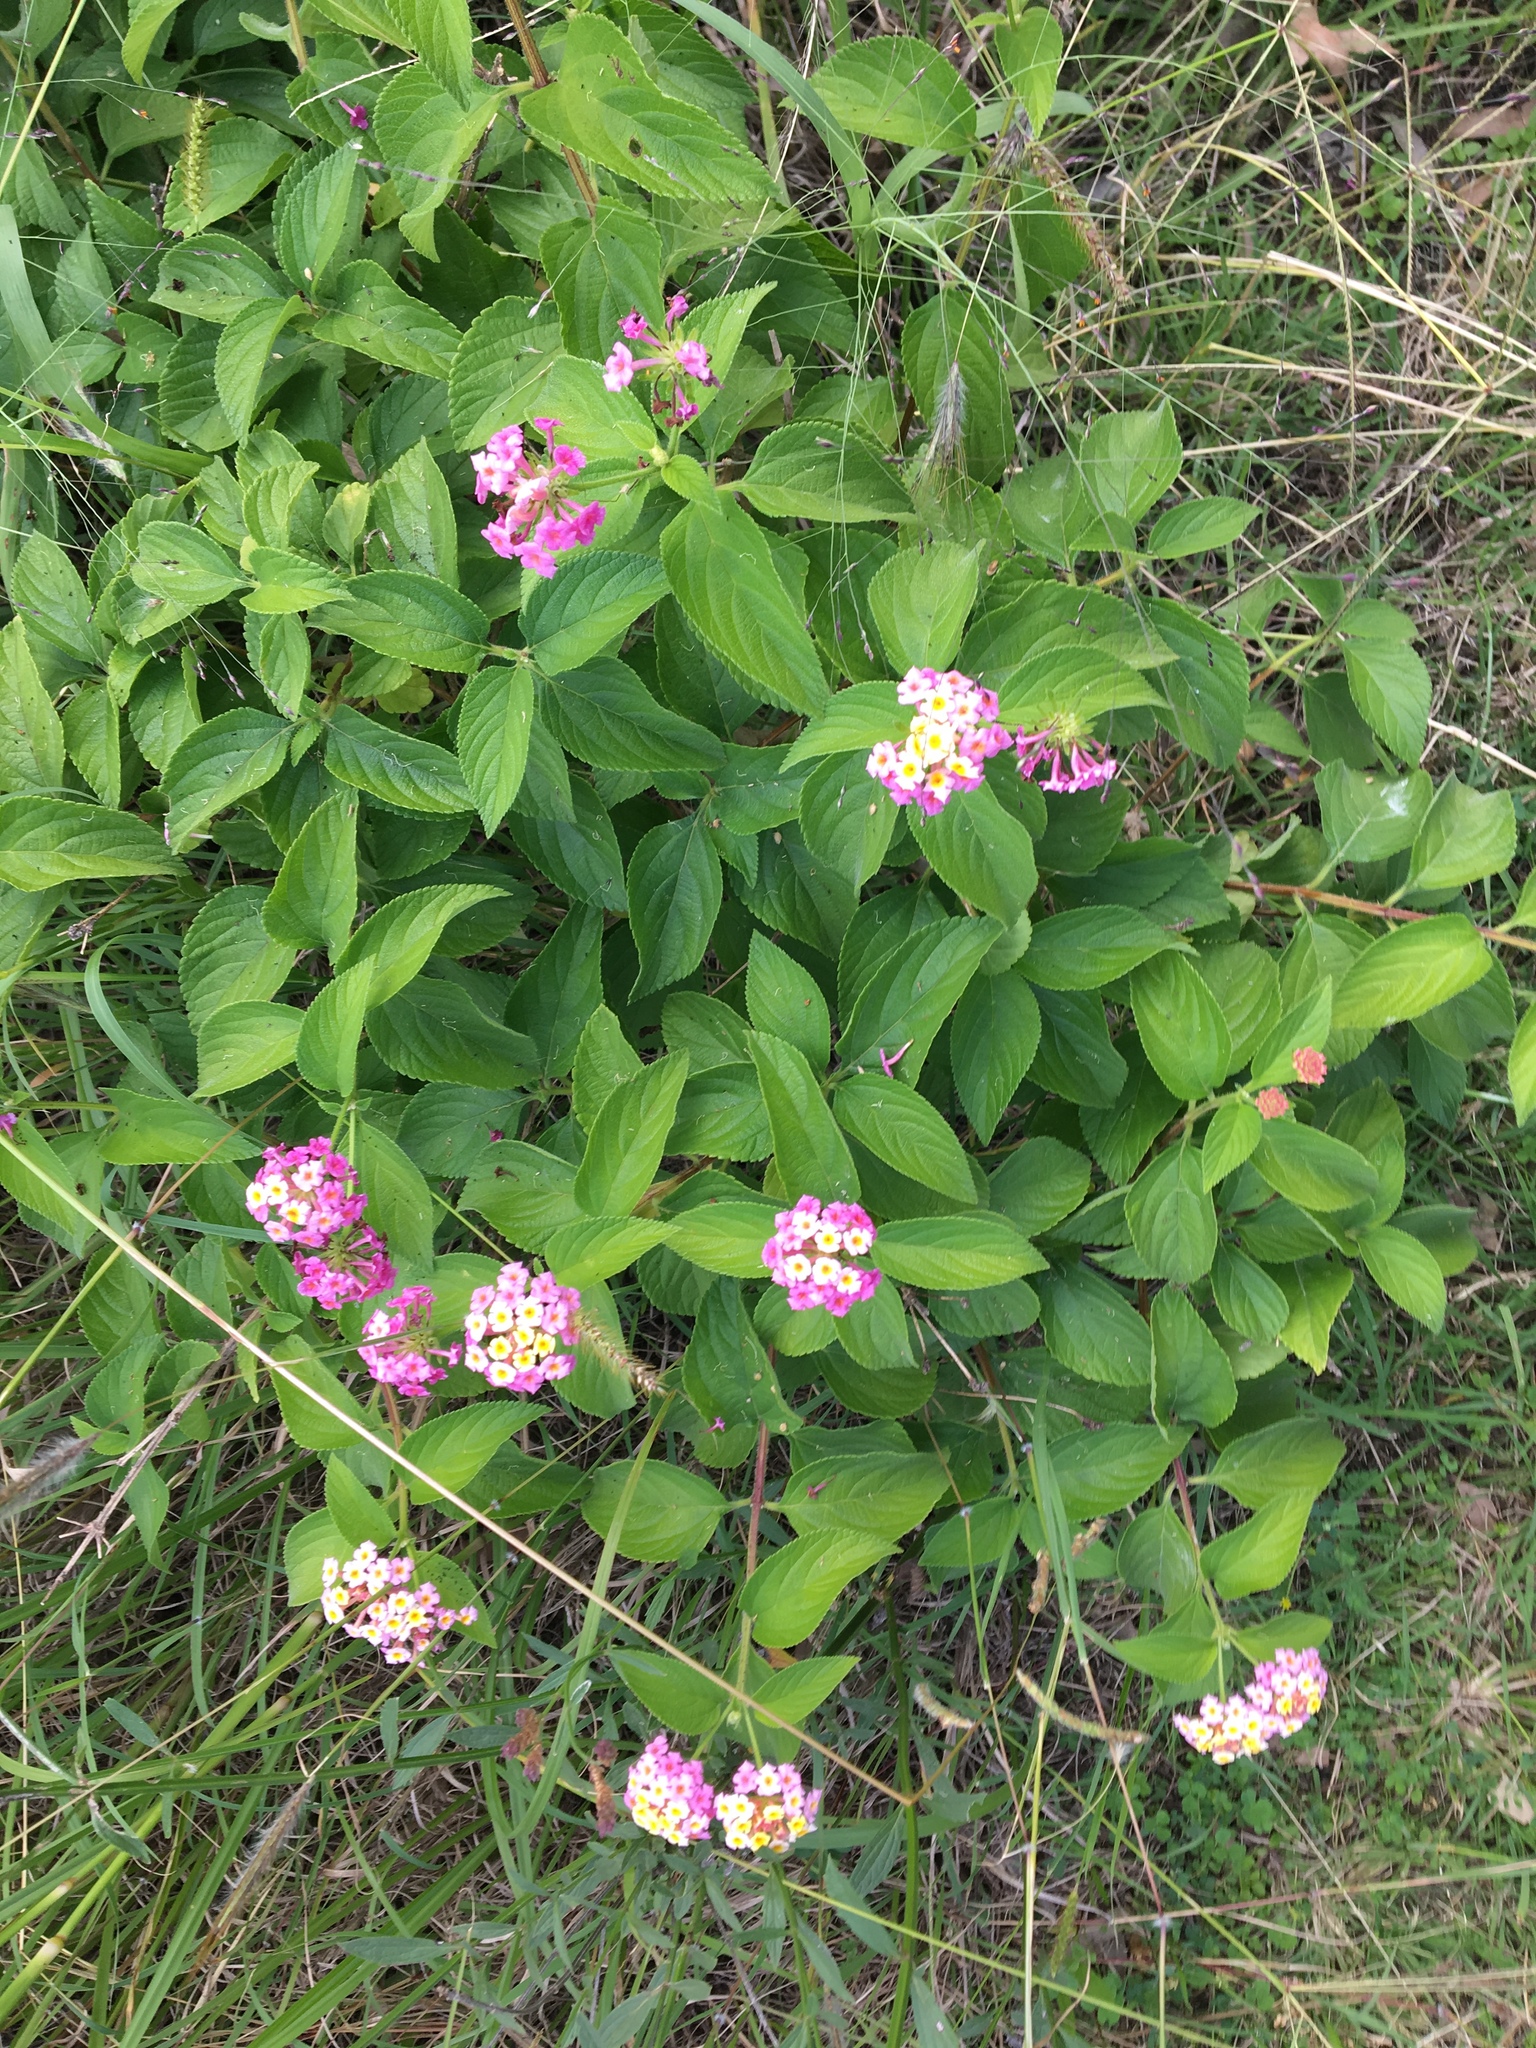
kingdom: Plantae
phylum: Tracheophyta
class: Magnoliopsida
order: Lamiales
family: Verbenaceae
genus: Lantana
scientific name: Lantana camara
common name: Lantana
